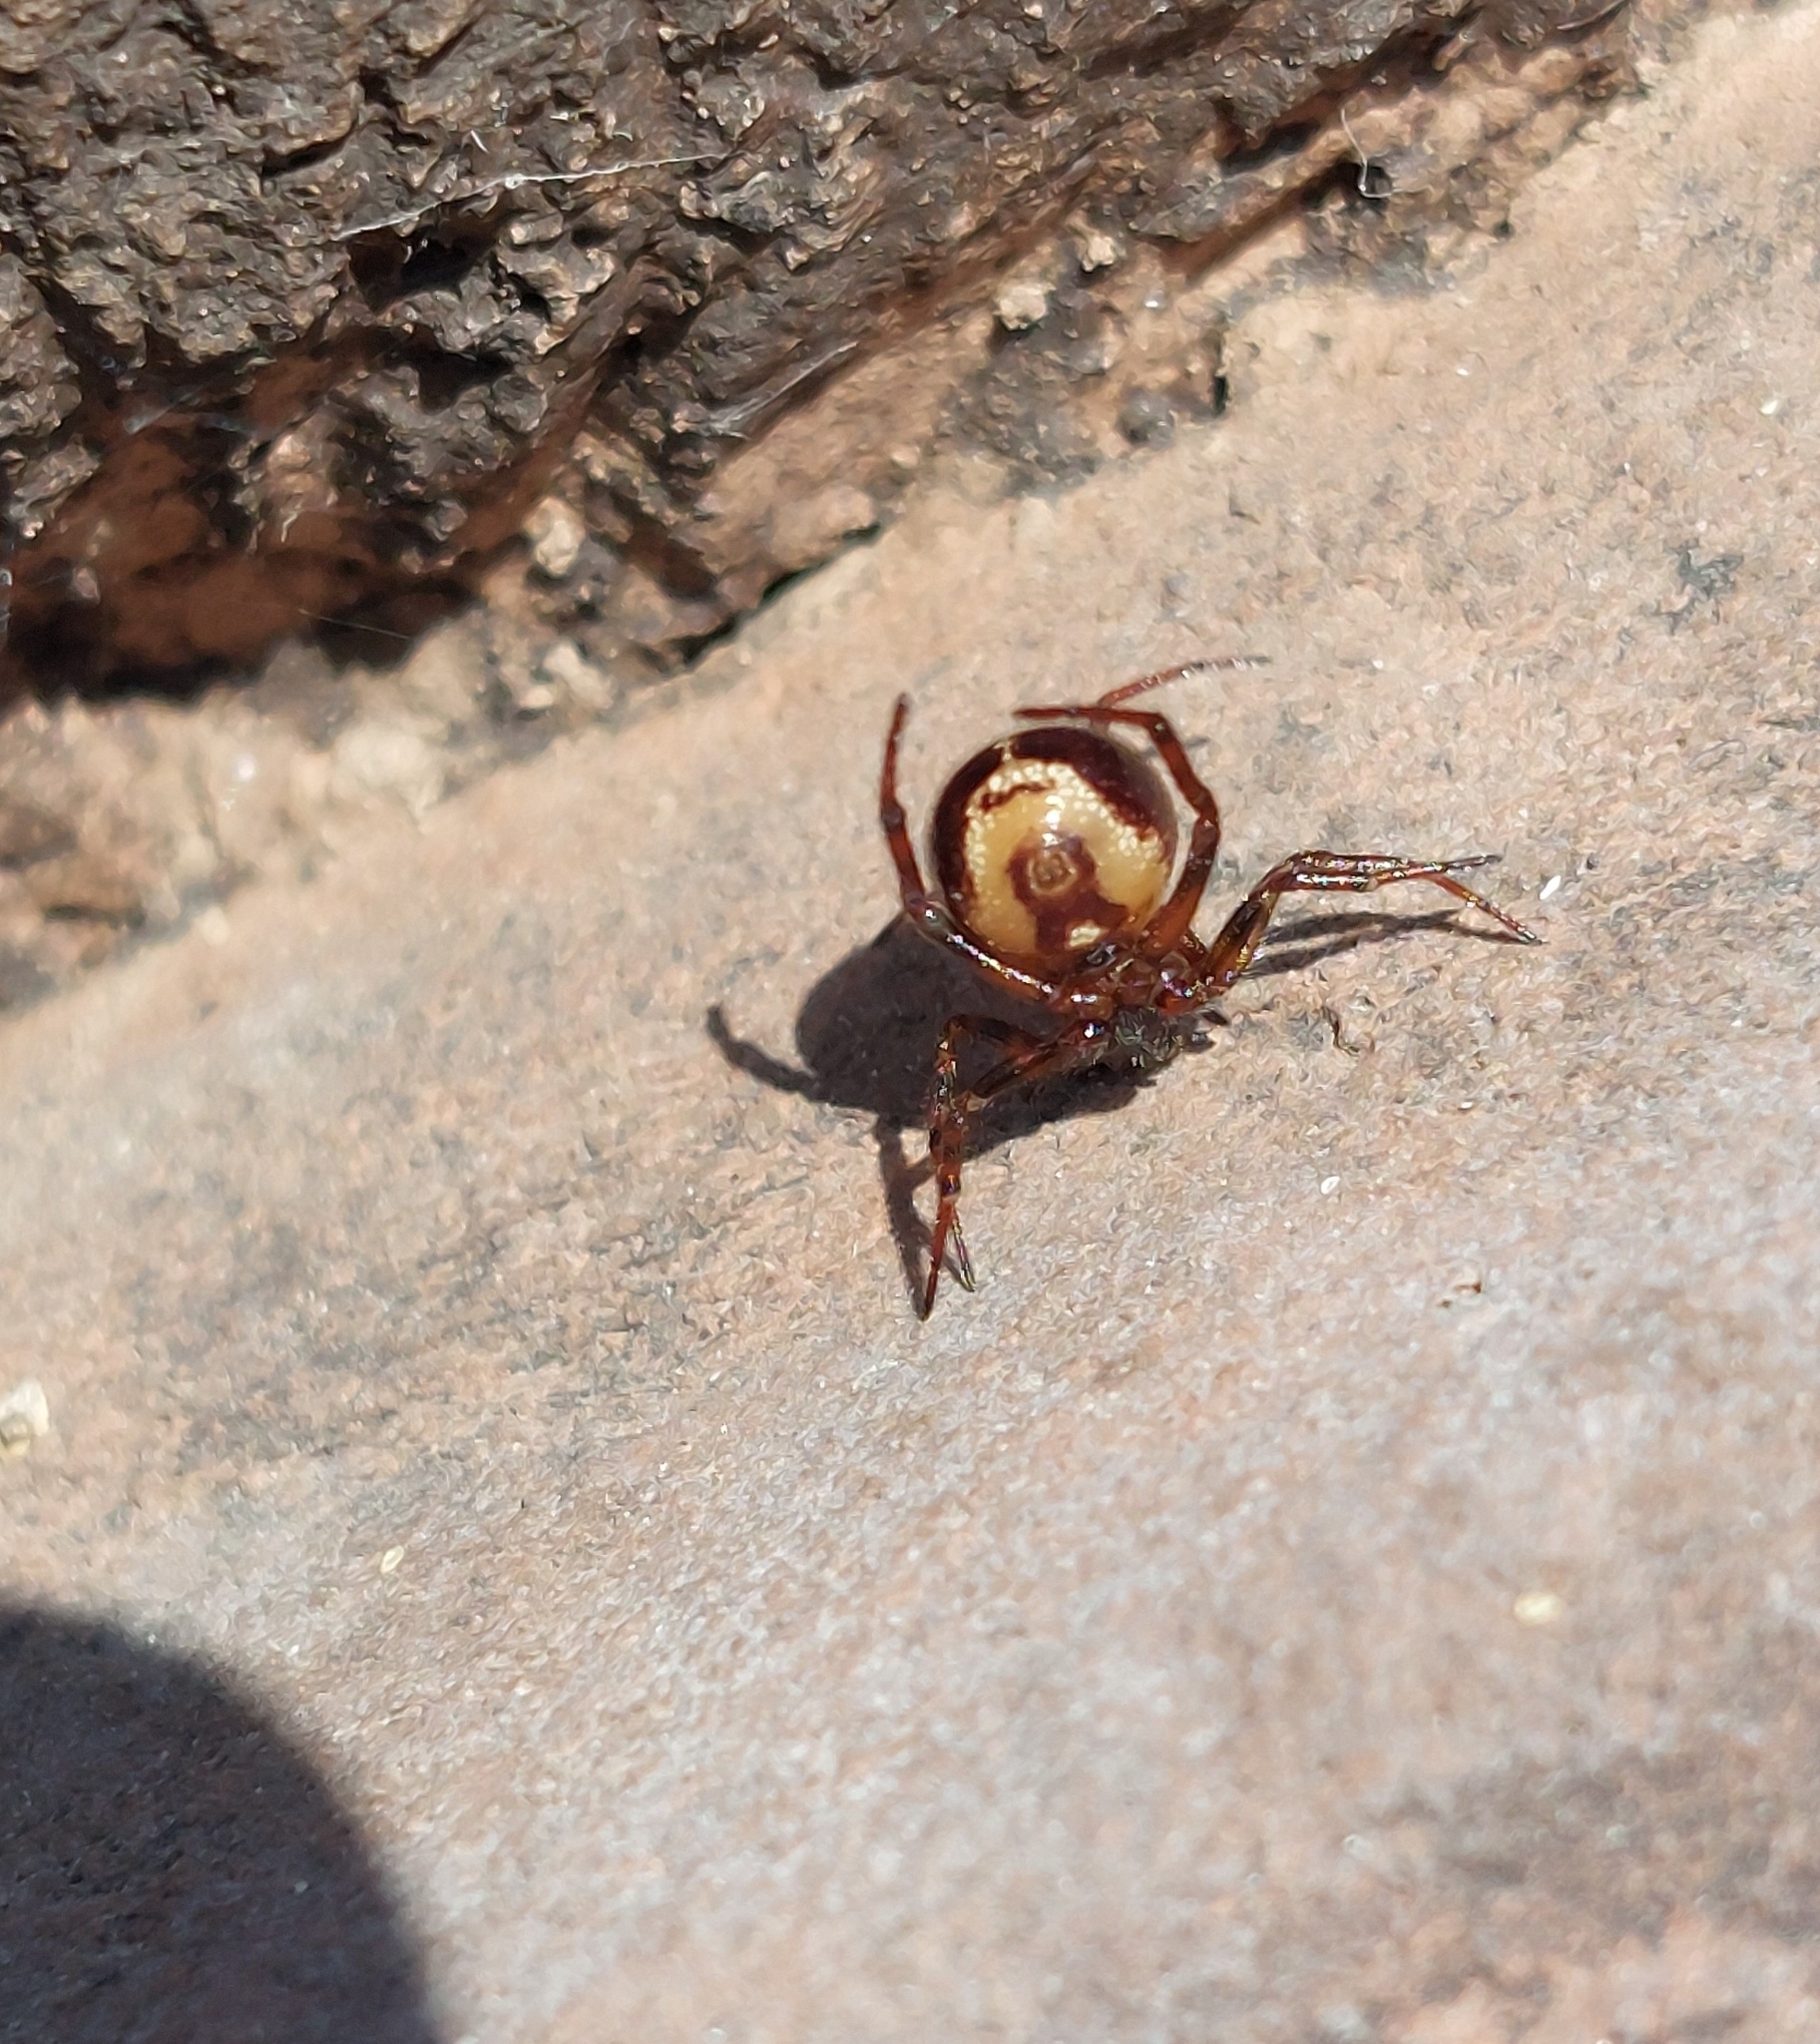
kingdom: Animalia
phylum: Arthropoda
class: Arachnida
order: Araneae
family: Theridiidae
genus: Steatoda
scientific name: Steatoda bipunctata
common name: False widow
